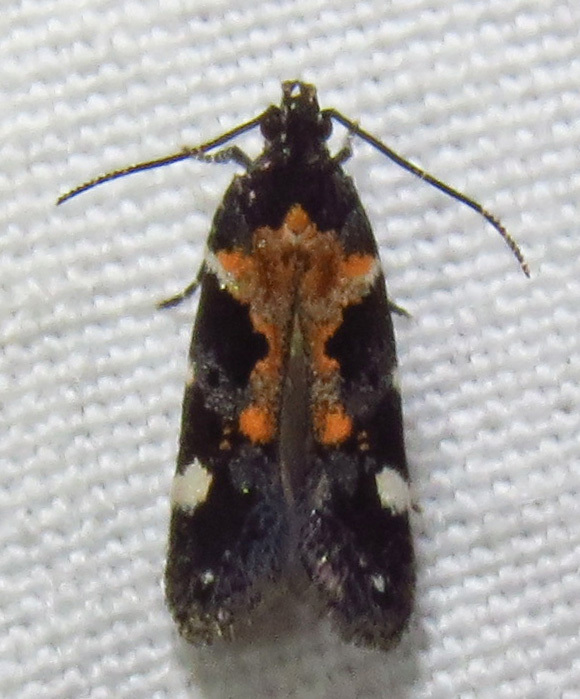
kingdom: Animalia
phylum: Arthropoda
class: Insecta
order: Lepidoptera
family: Gelechiidae
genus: Stegasta
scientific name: Stegasta bosqueella
